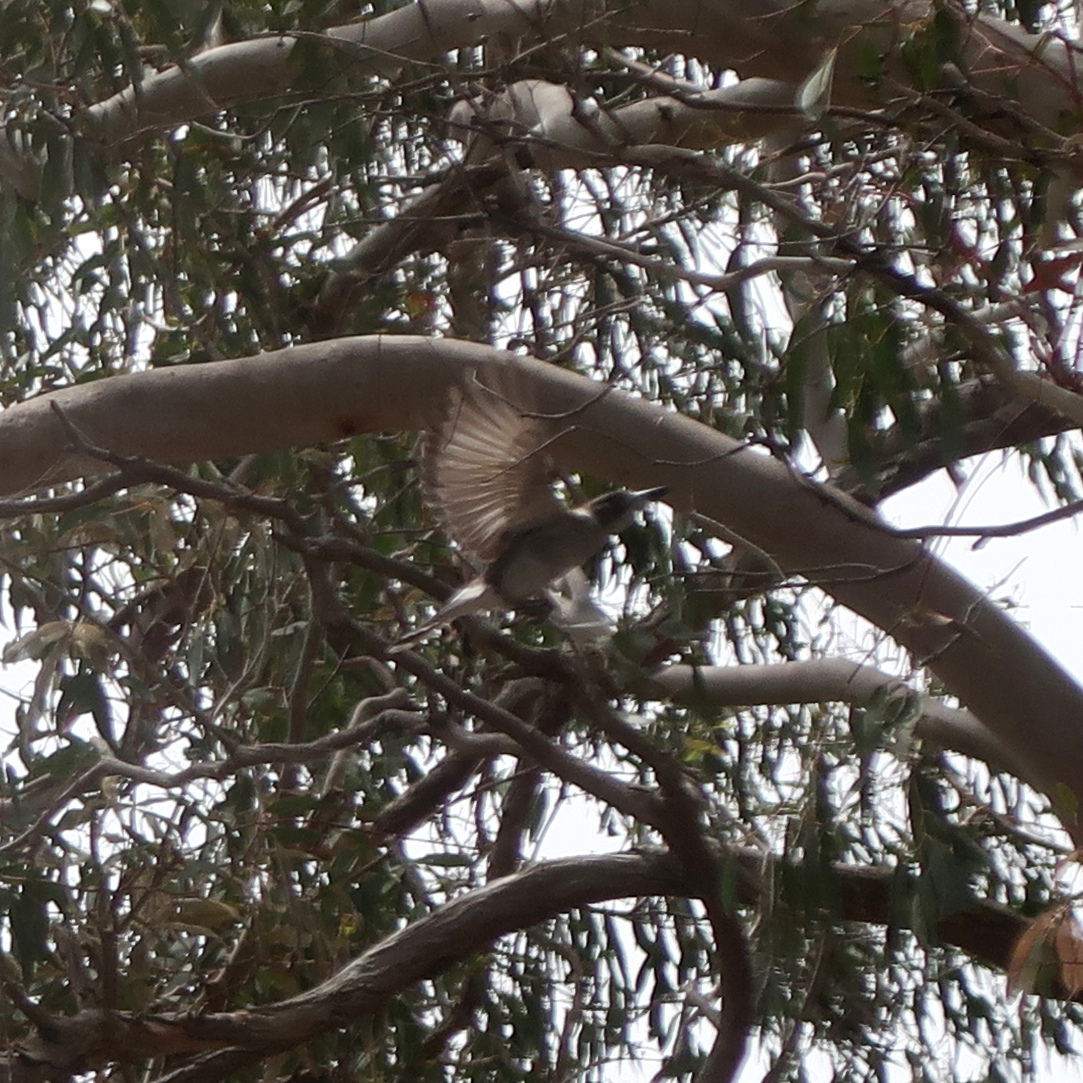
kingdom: Animalia
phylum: Chordata
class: Aves
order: Passeriformes
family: Cracticidae
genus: Cracticus
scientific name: Cracticus torquatus
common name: Grey butcherbird
